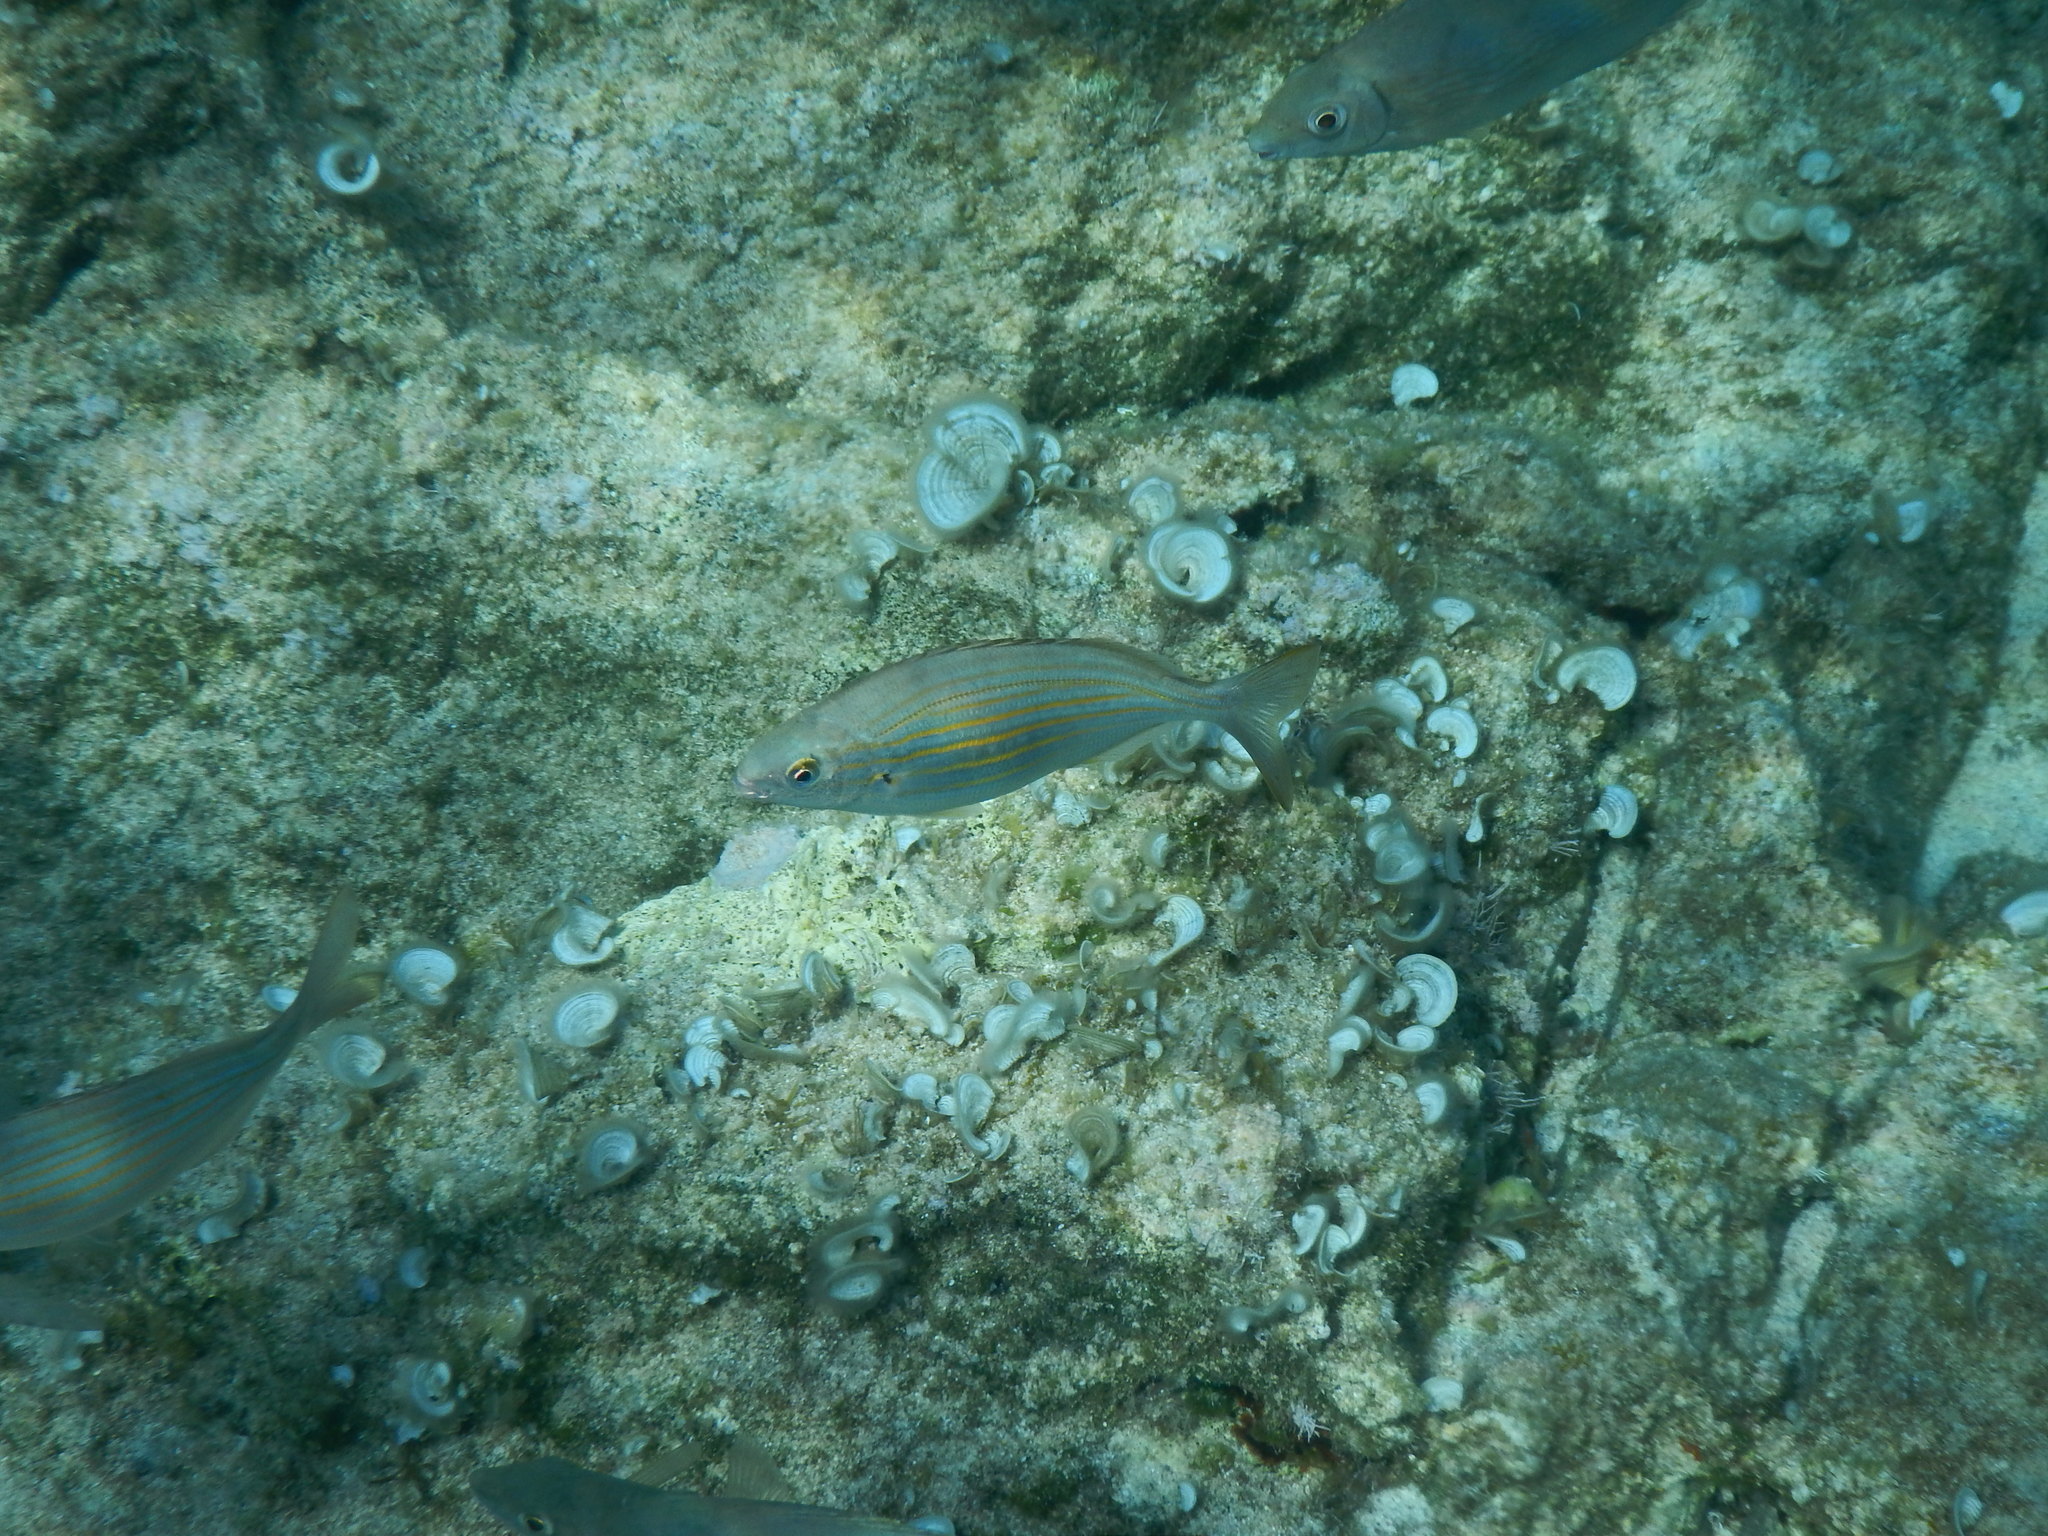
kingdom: Animalia
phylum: Chordata
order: Perciformes
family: Sparidae
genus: Sarpa
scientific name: Sarpa salpa
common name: Salema
